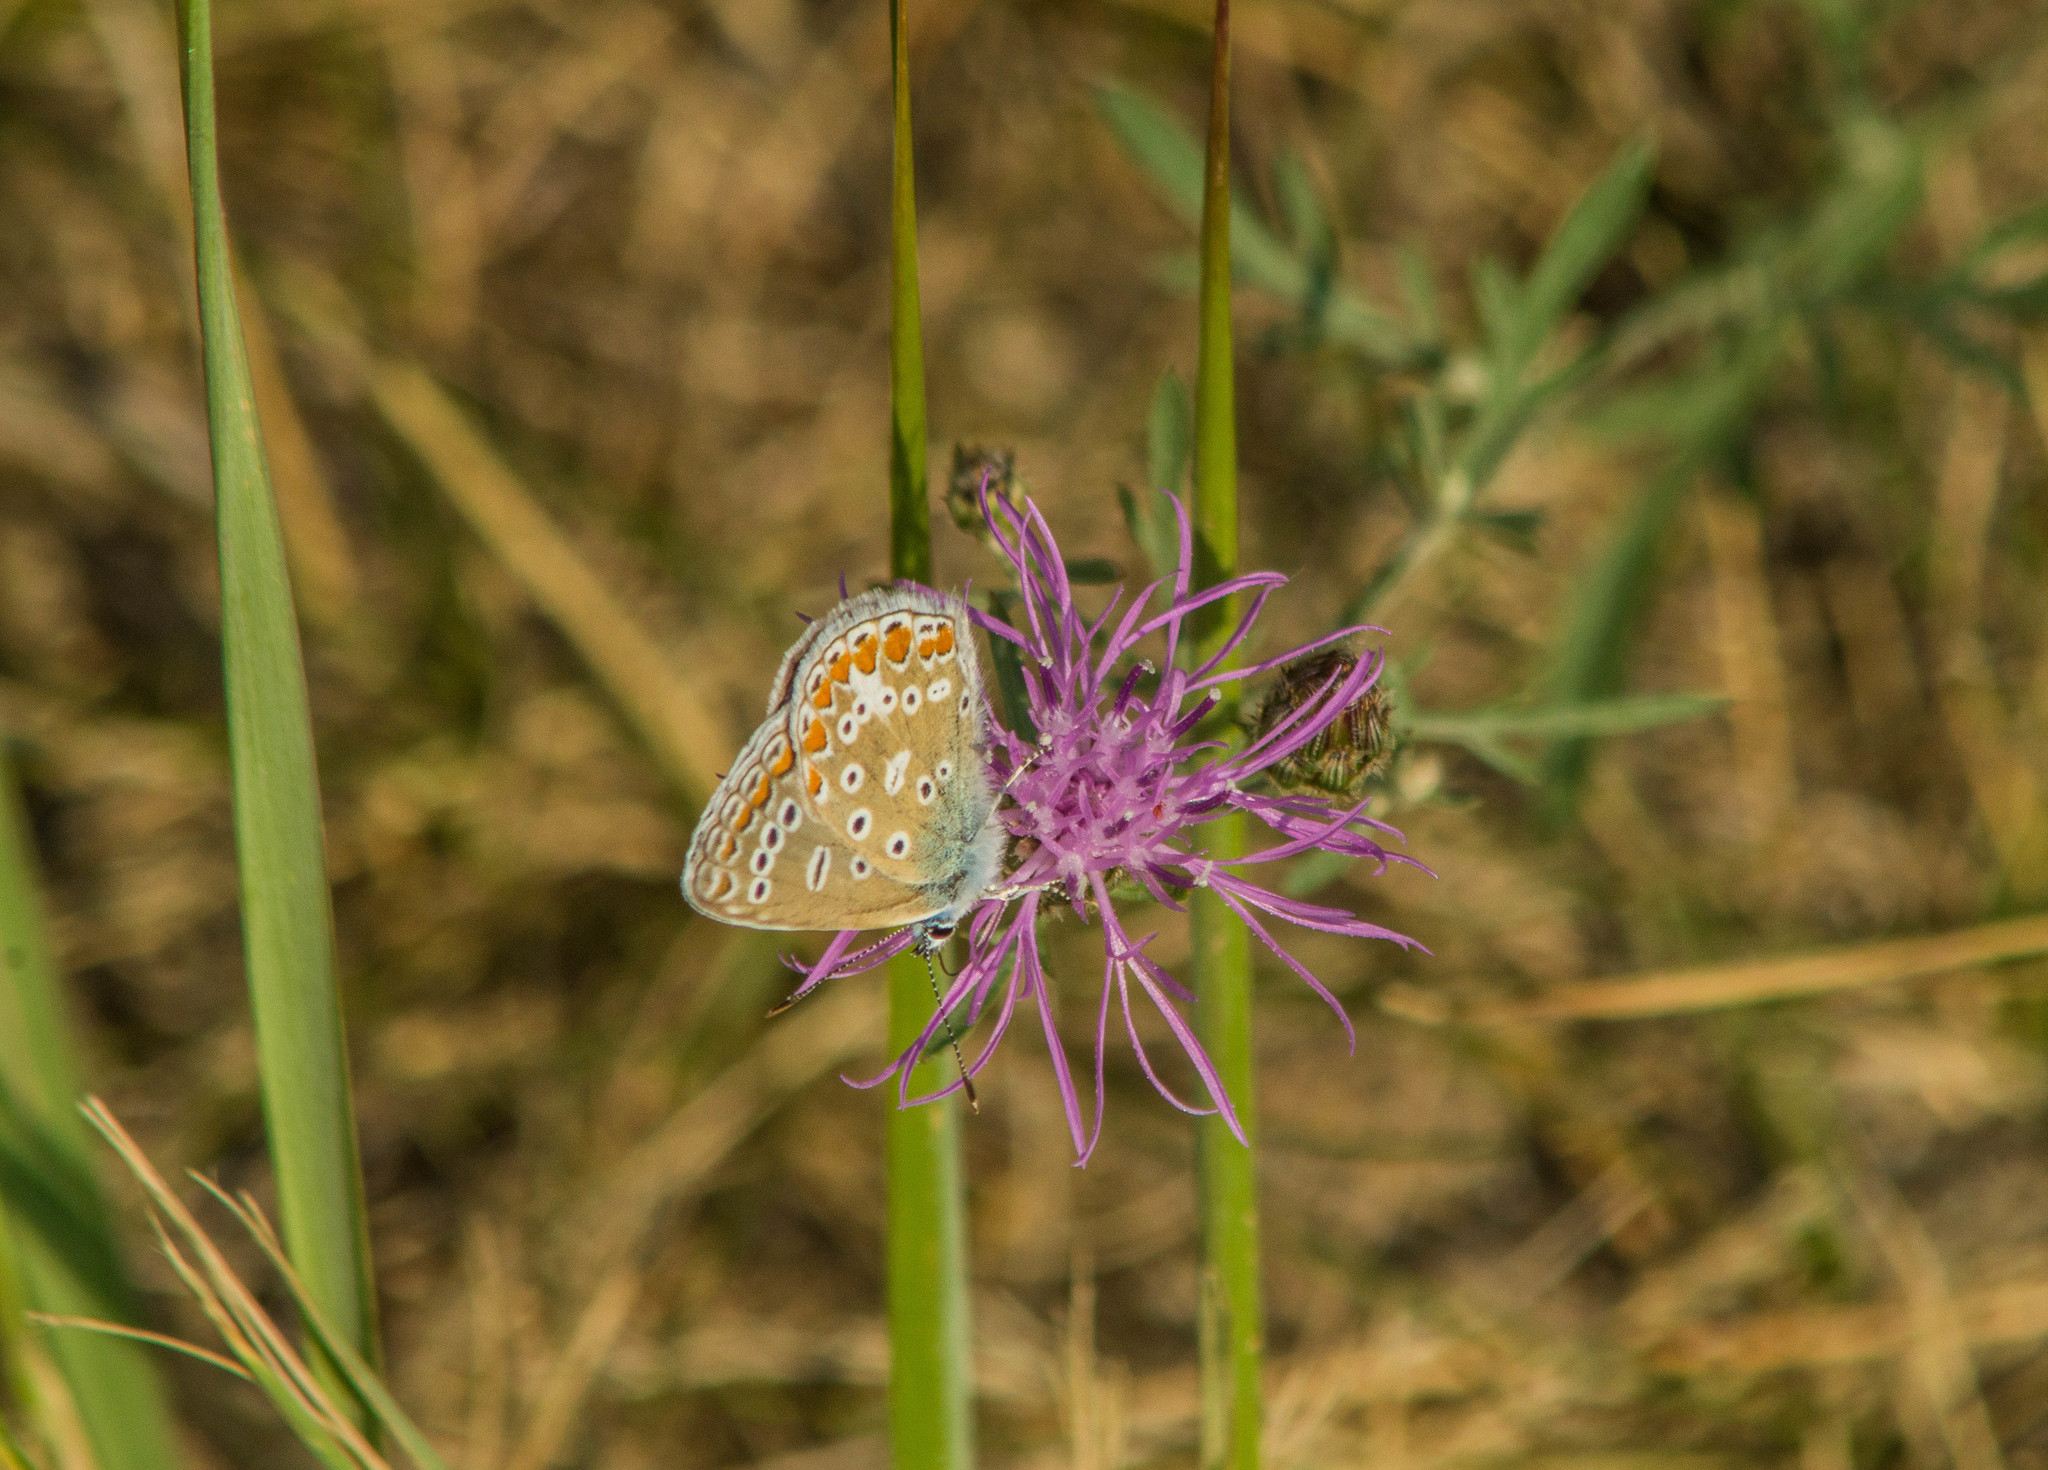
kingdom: Animalia
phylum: Arthropoda
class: Insecta
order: Lepidoptera
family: Lycaenidae
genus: Polyommatus
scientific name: Polyommatus icarus
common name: Common blue
